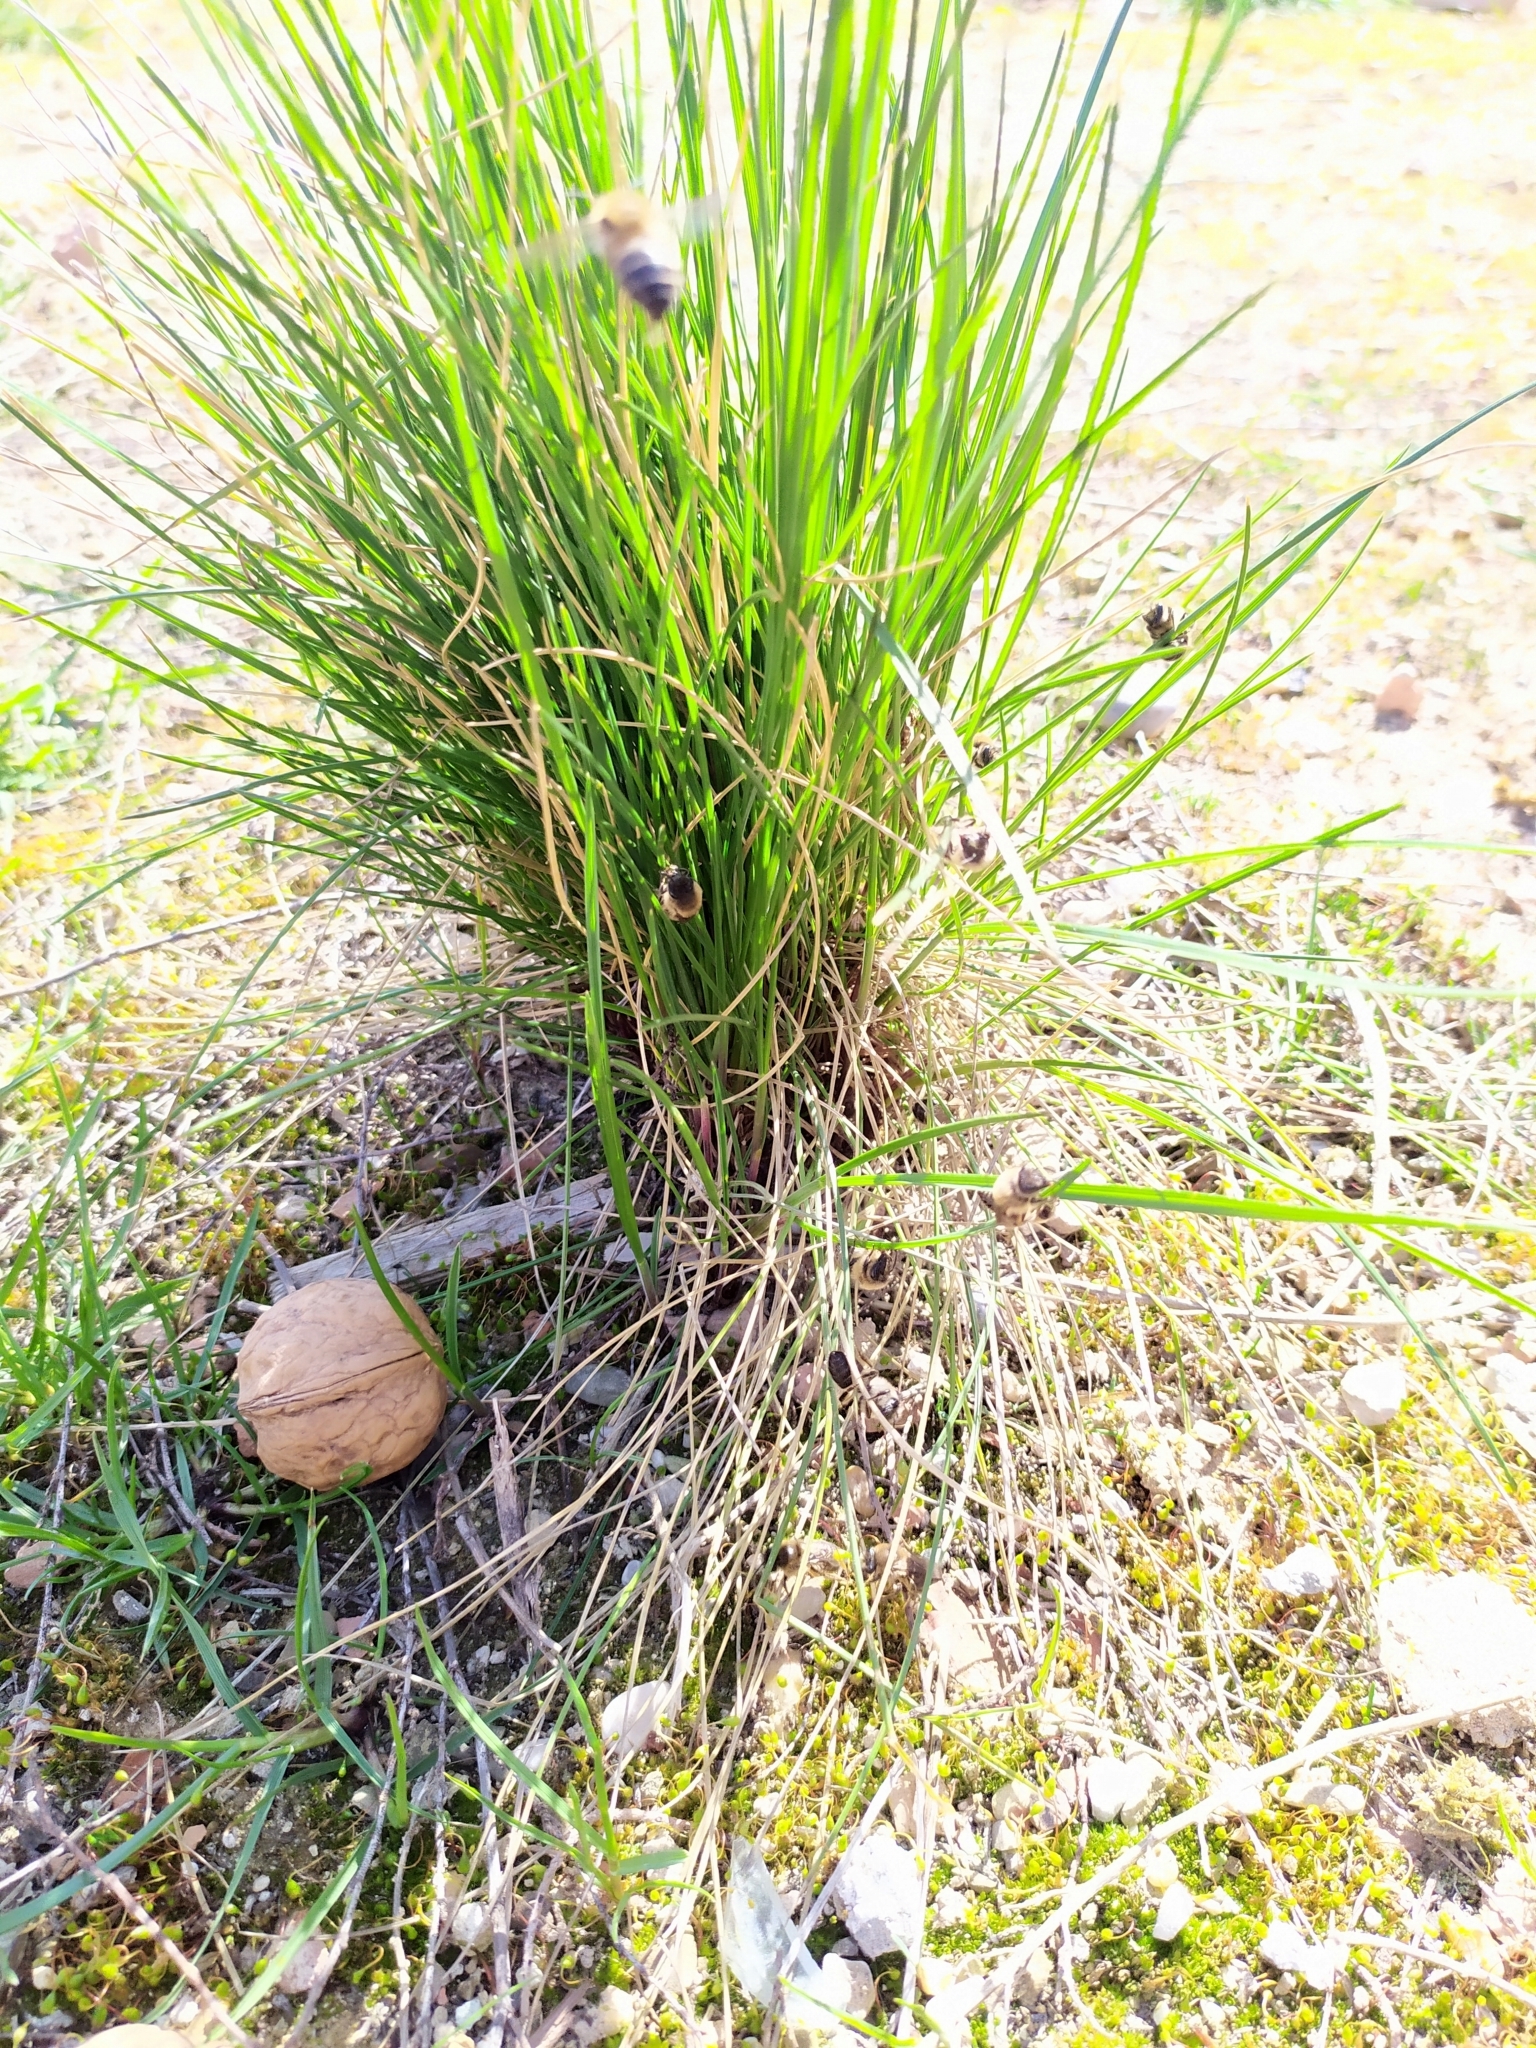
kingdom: Animalia
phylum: Arthropoda
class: Insecta
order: Hymenoptera
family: Colletidae
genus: Colletes
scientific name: Colletes cunicularius
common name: Early colletes
